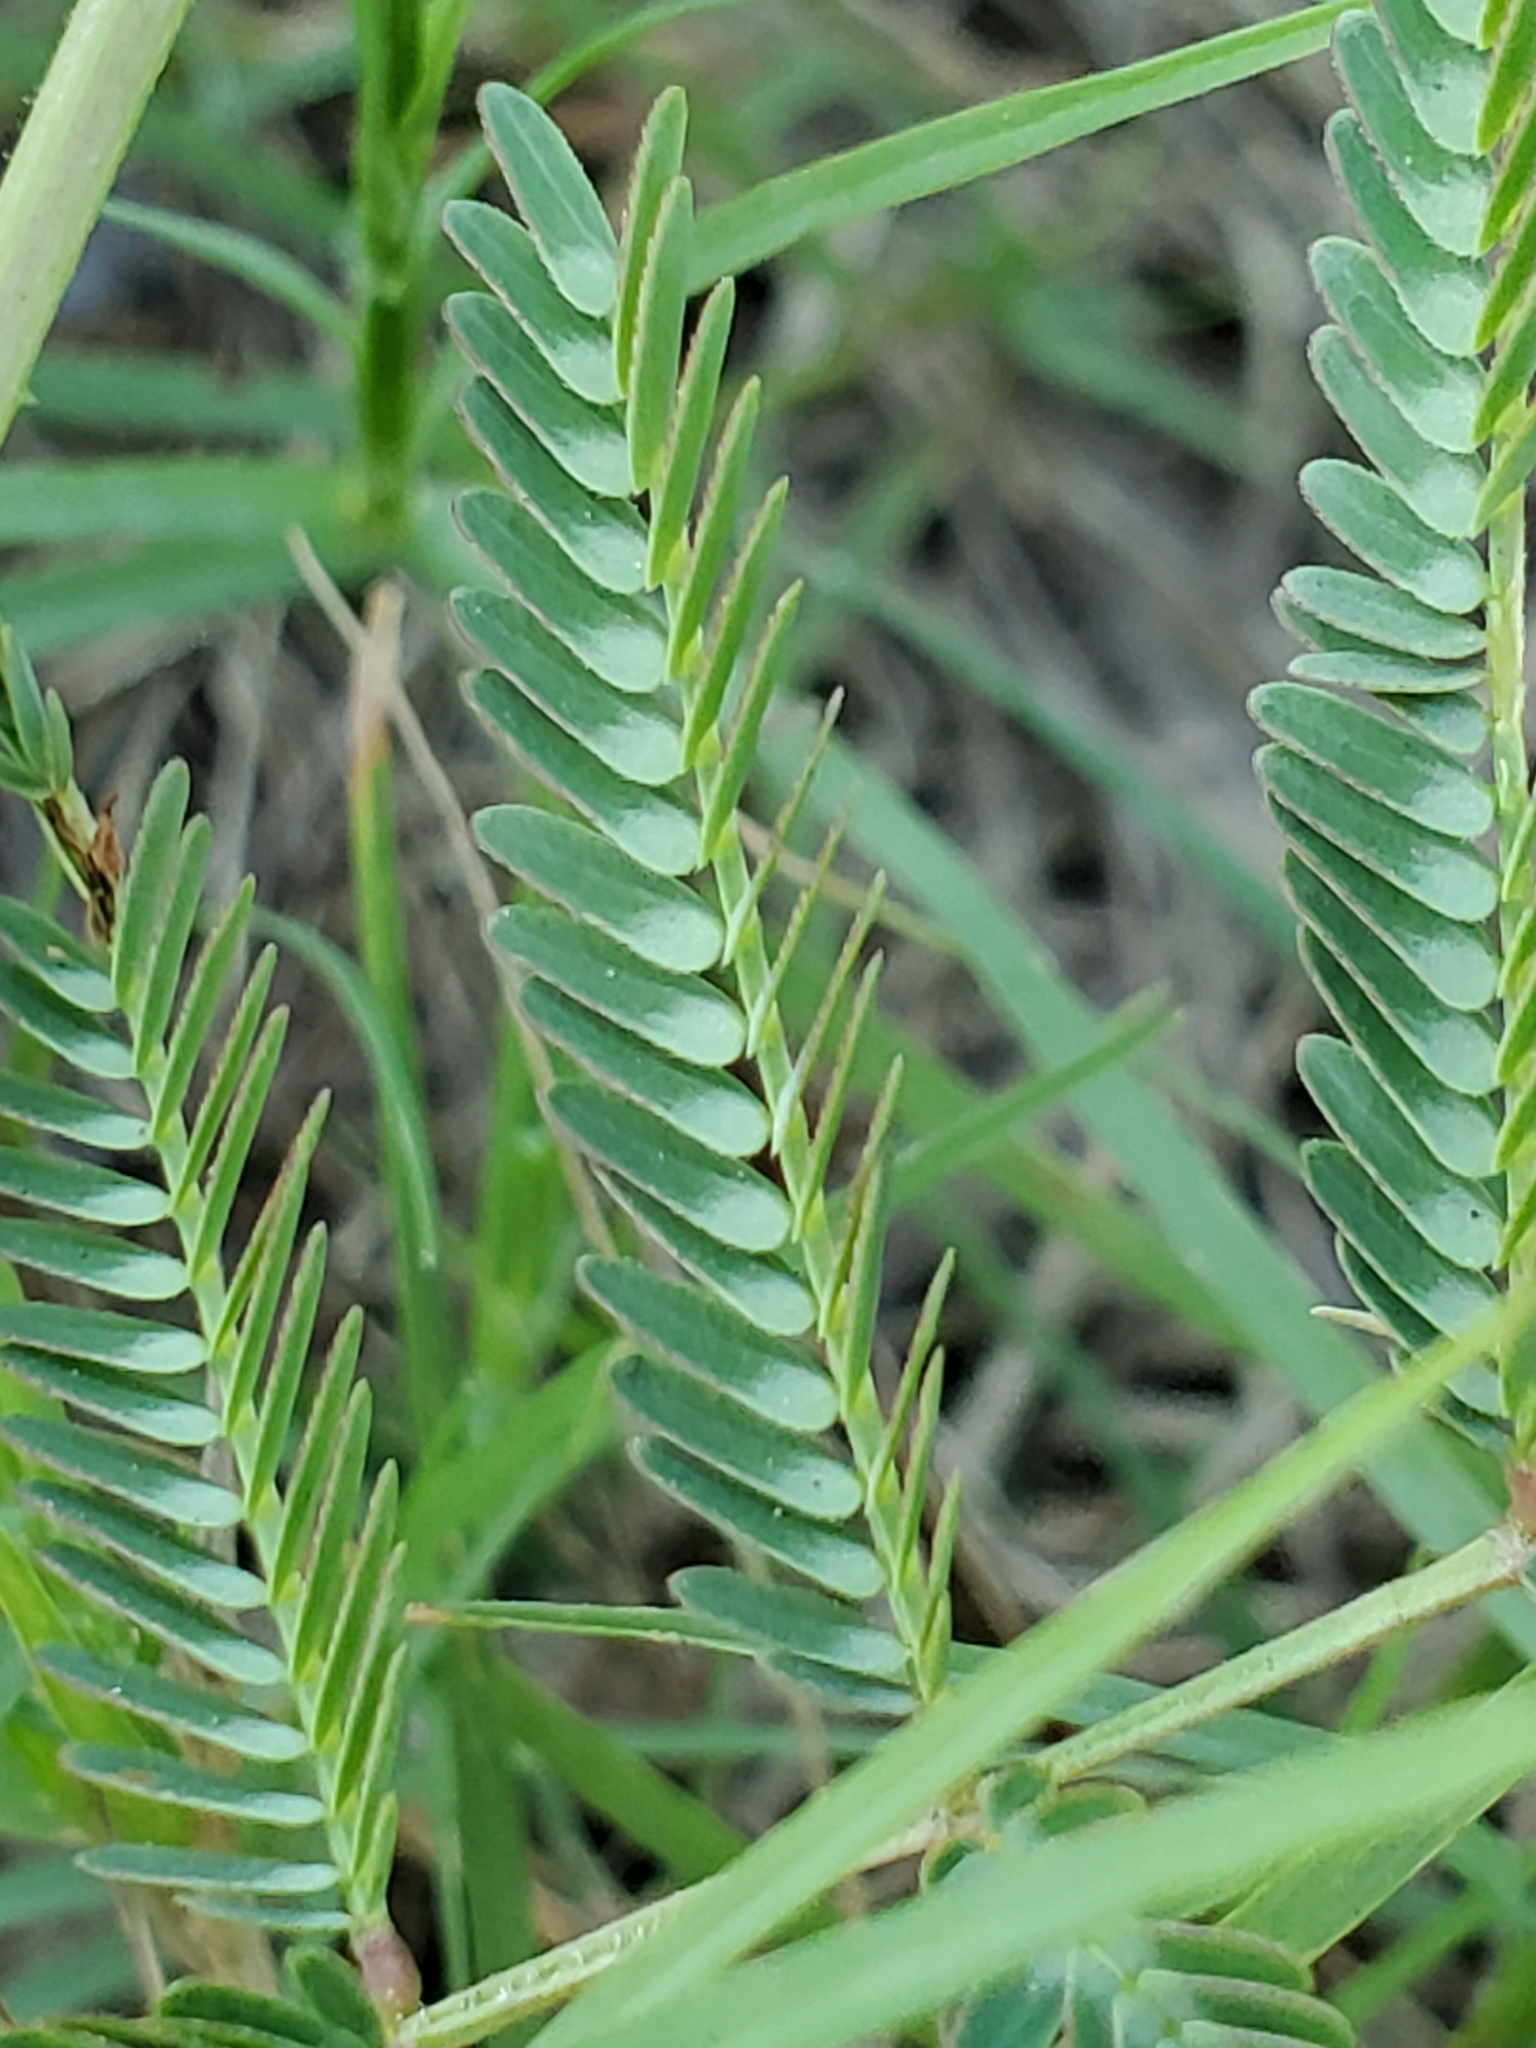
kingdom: Plantae
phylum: Tracheophyta
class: Magnoliopsida
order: Fabales
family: Fabaceae
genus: Neptunia
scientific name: Neptunia pubescens
